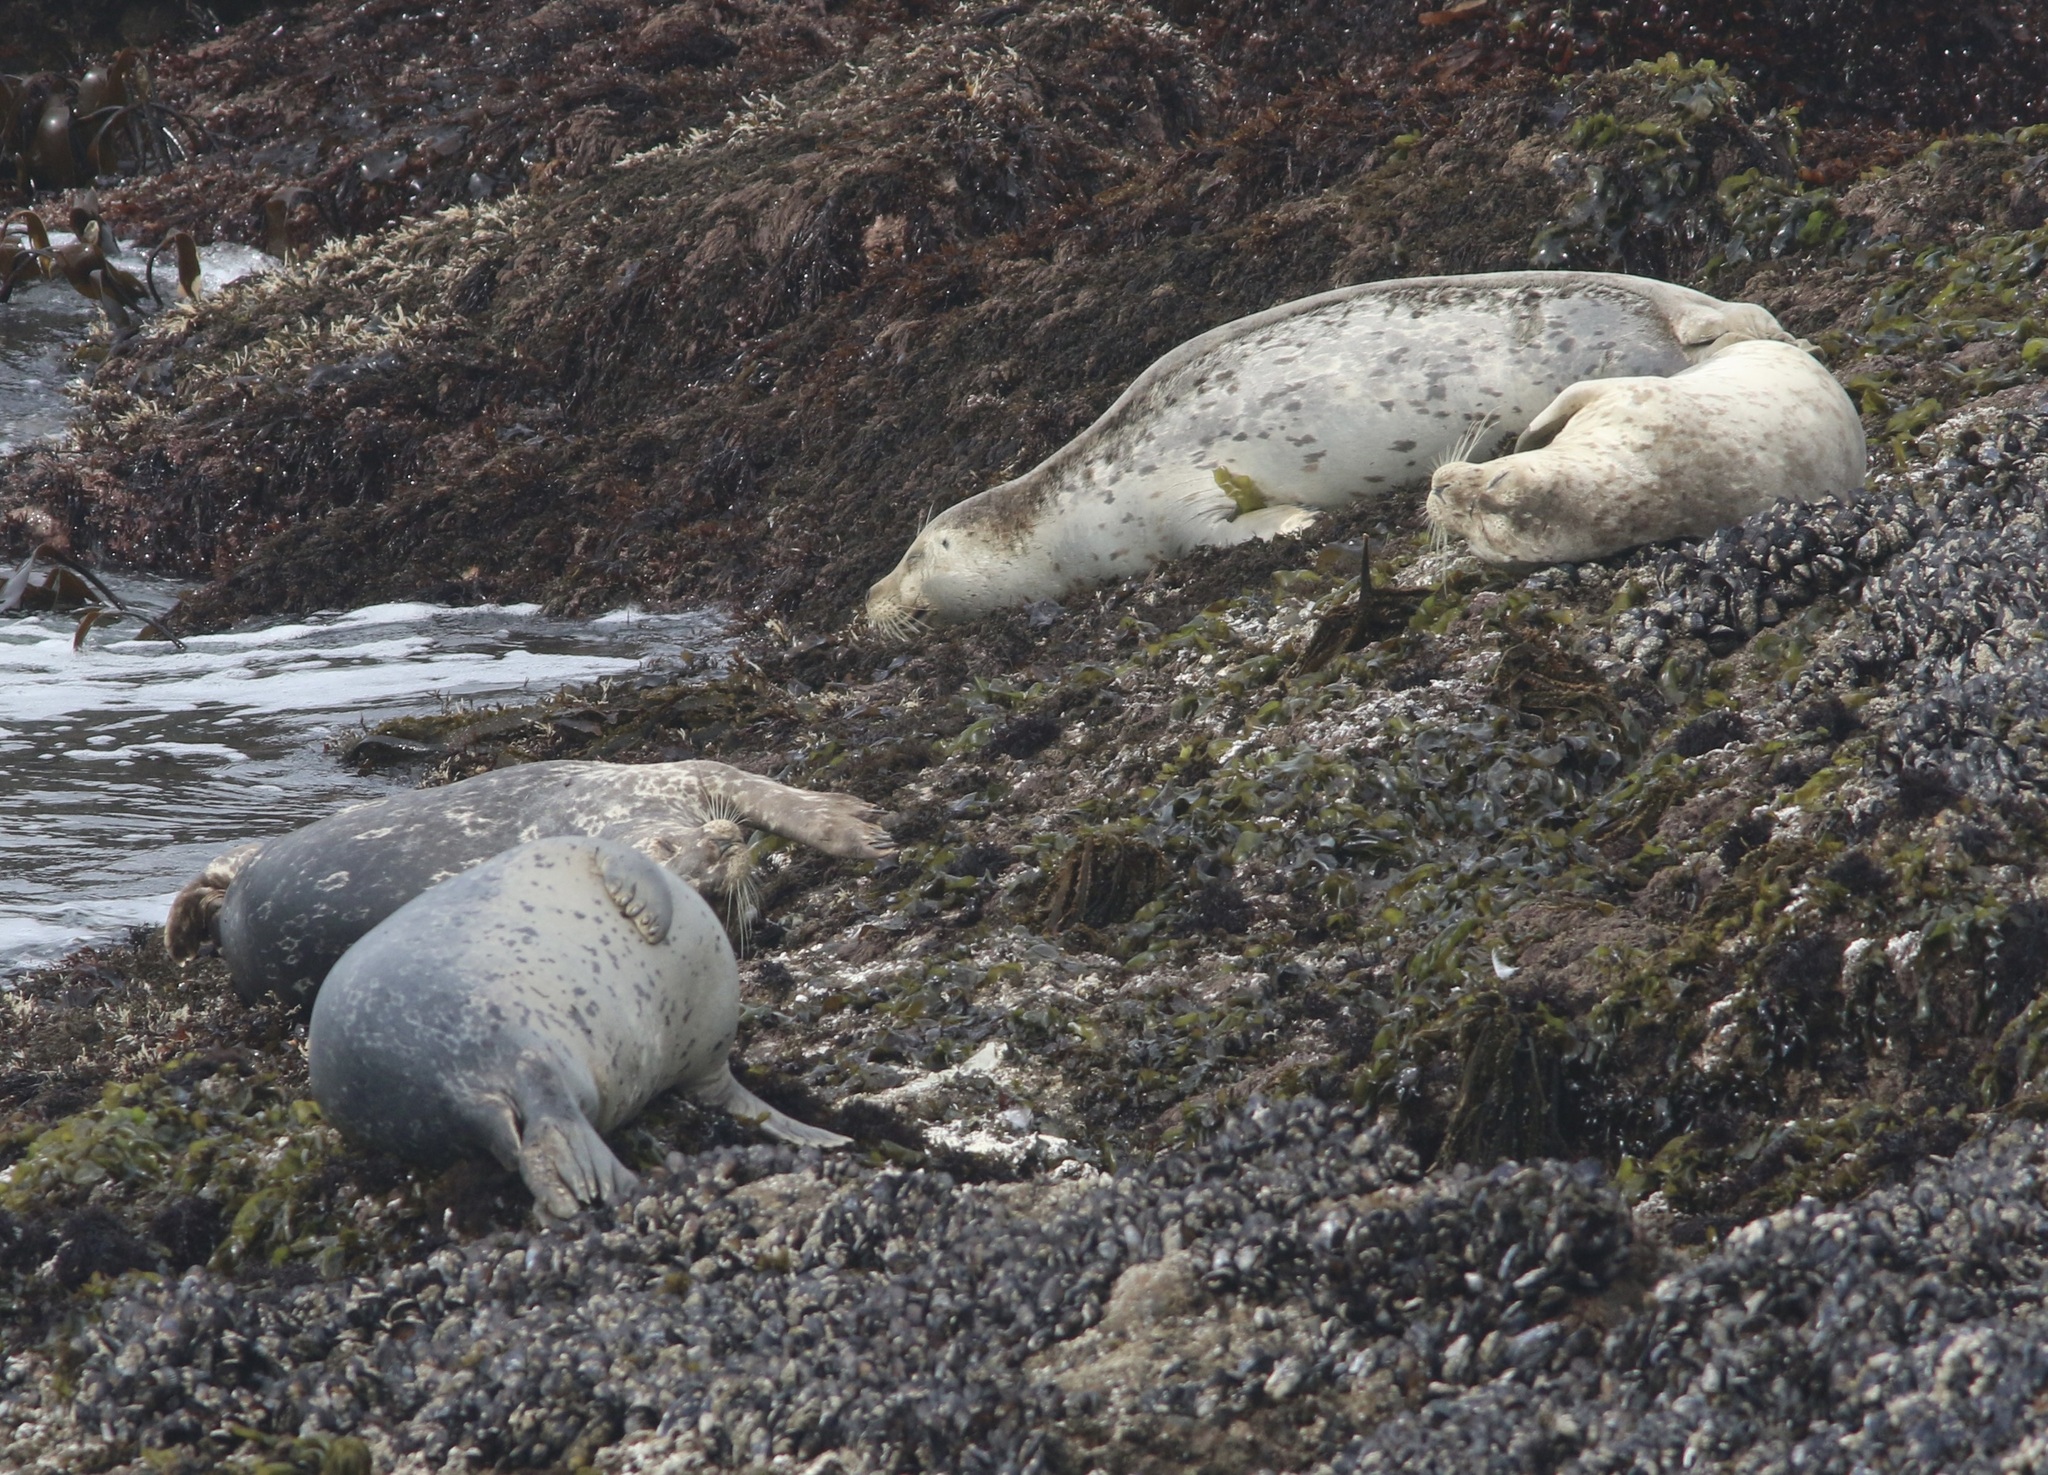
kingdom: Animalia
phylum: Chordata
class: Mammalia
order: Carnivora
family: Phocidae
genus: Phoca
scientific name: Phoca vitulina
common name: Harbor seal
